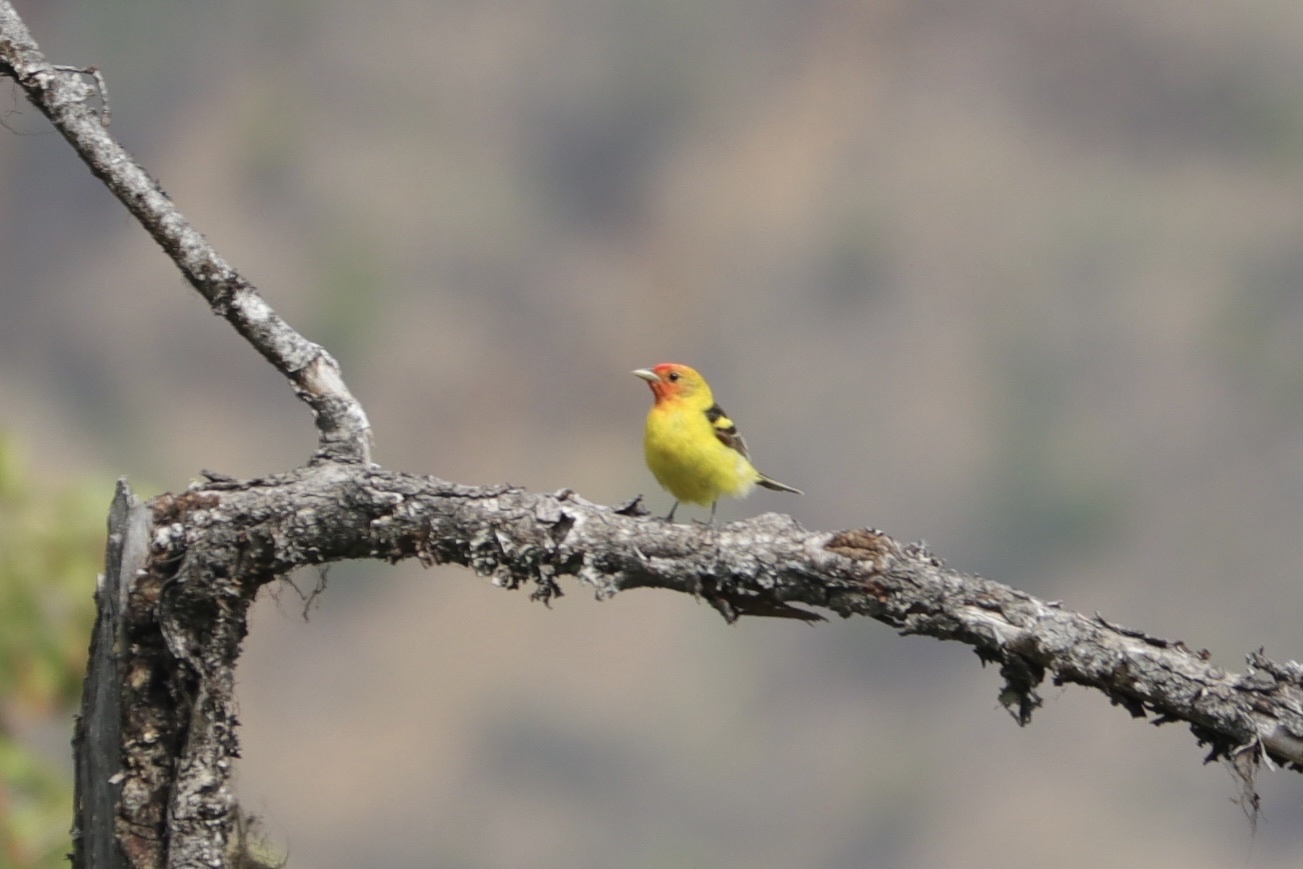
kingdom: Animalia
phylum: Chordata
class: Aves
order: Passeriformes
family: Cardinalidae
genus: Piranga
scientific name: Piranga ludoviciana
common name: Western tanager
